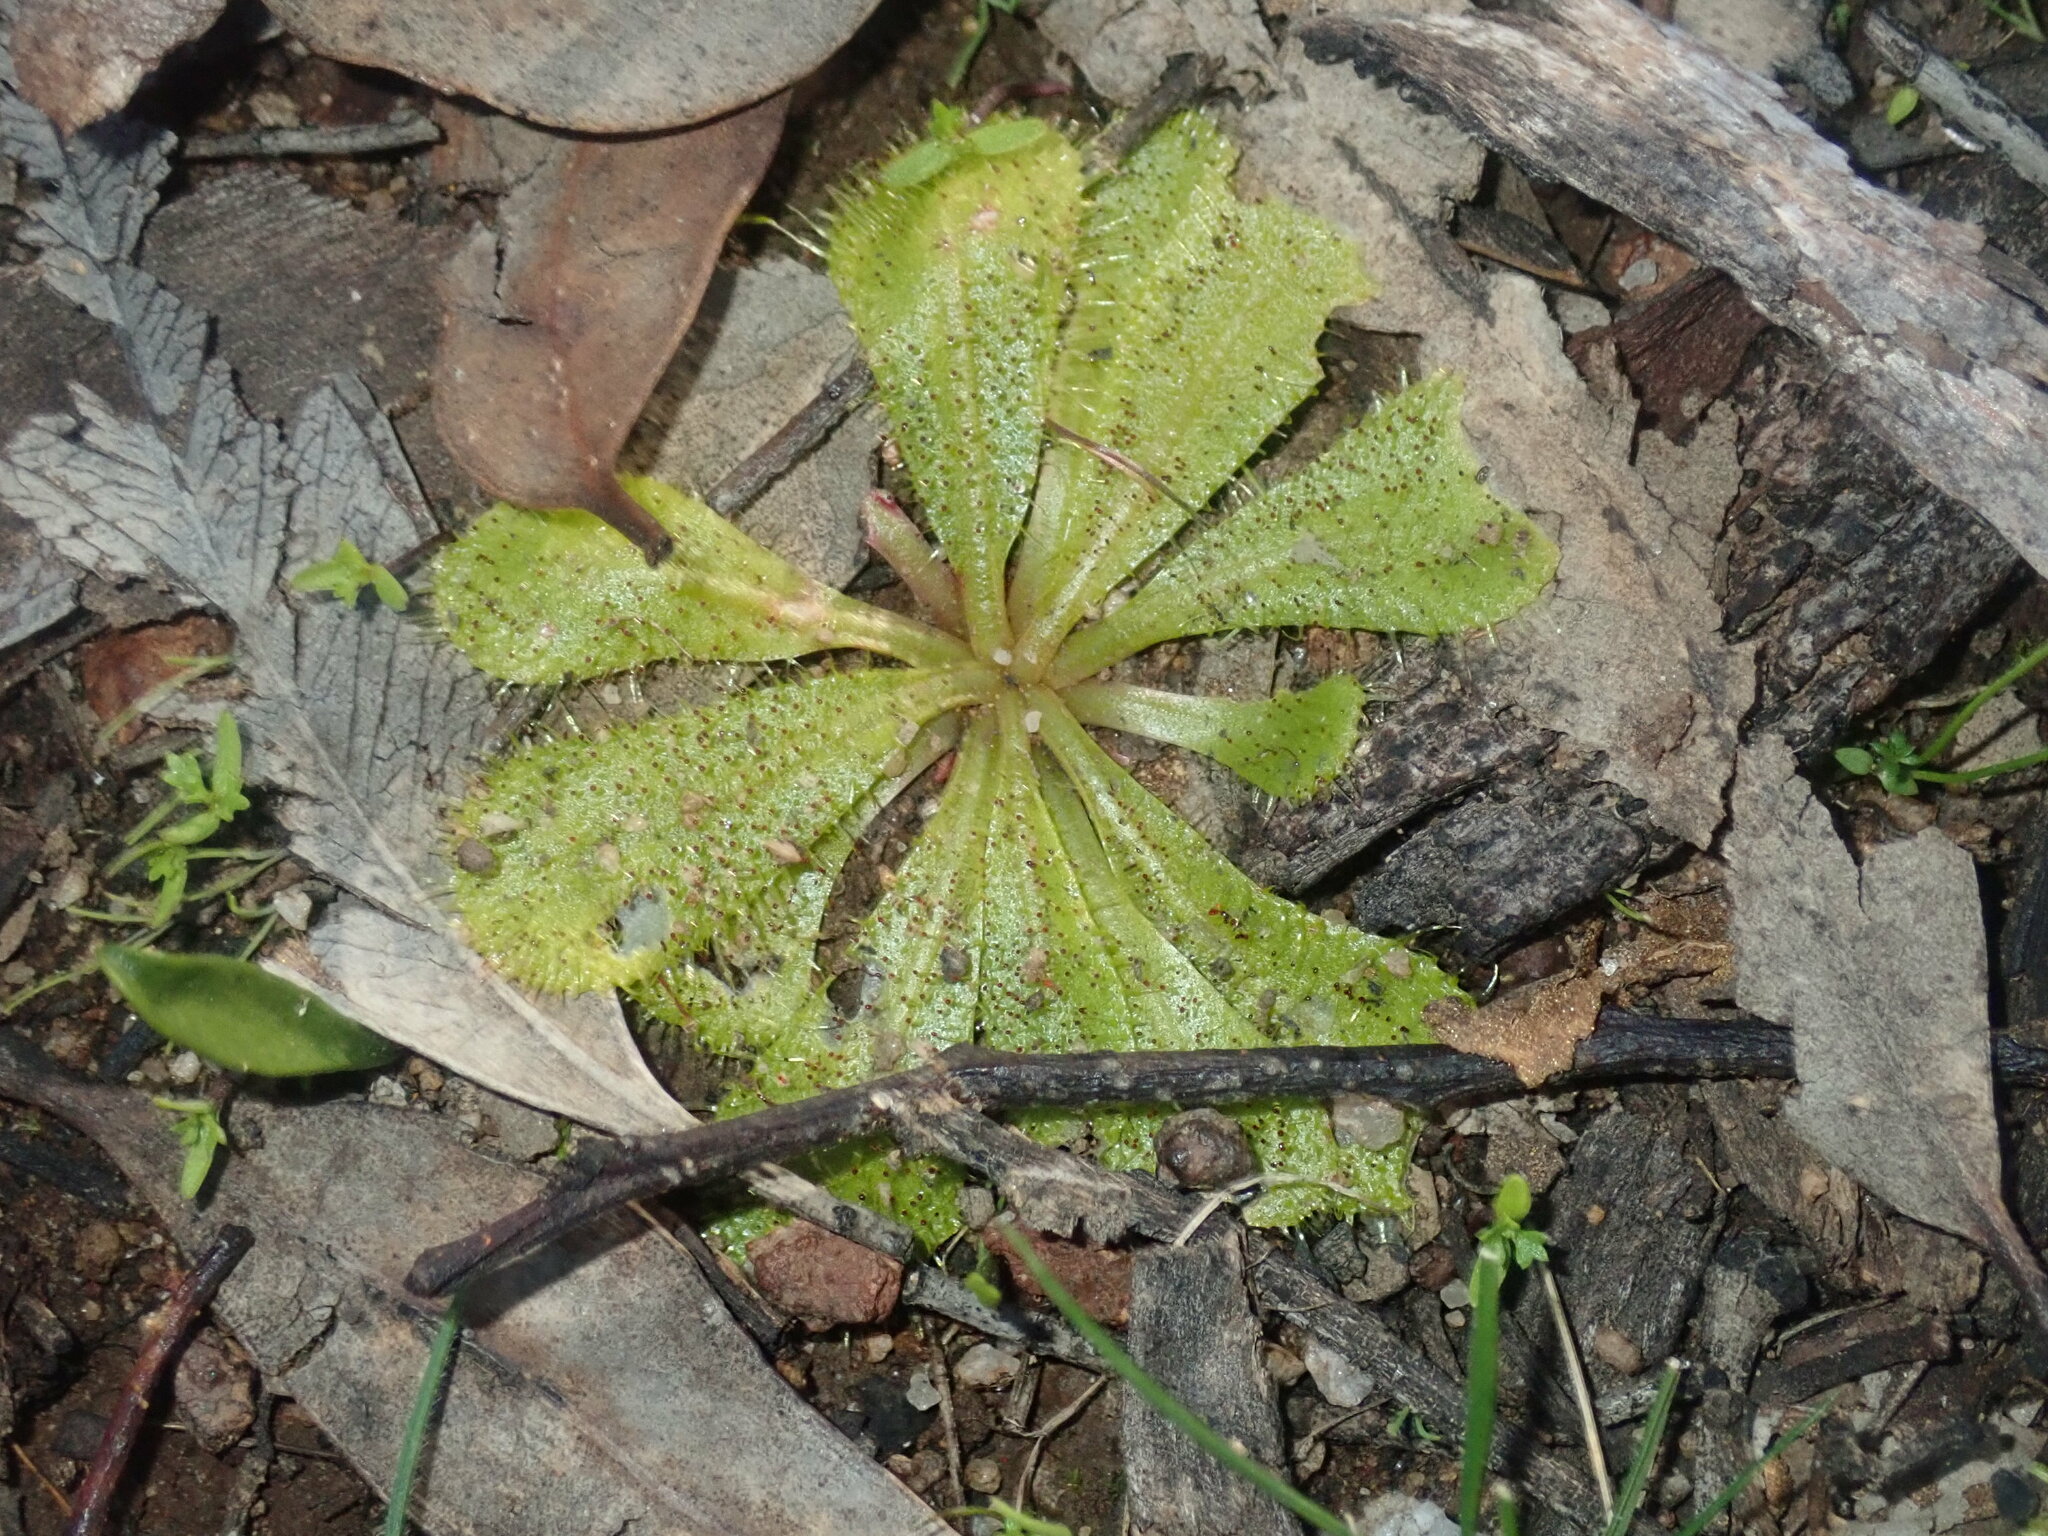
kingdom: Plantae
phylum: Tracheophyta
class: Magnoliopsida
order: Caryophyllales
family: Droseraceae
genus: Drosera
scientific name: Drosera bulbosa
